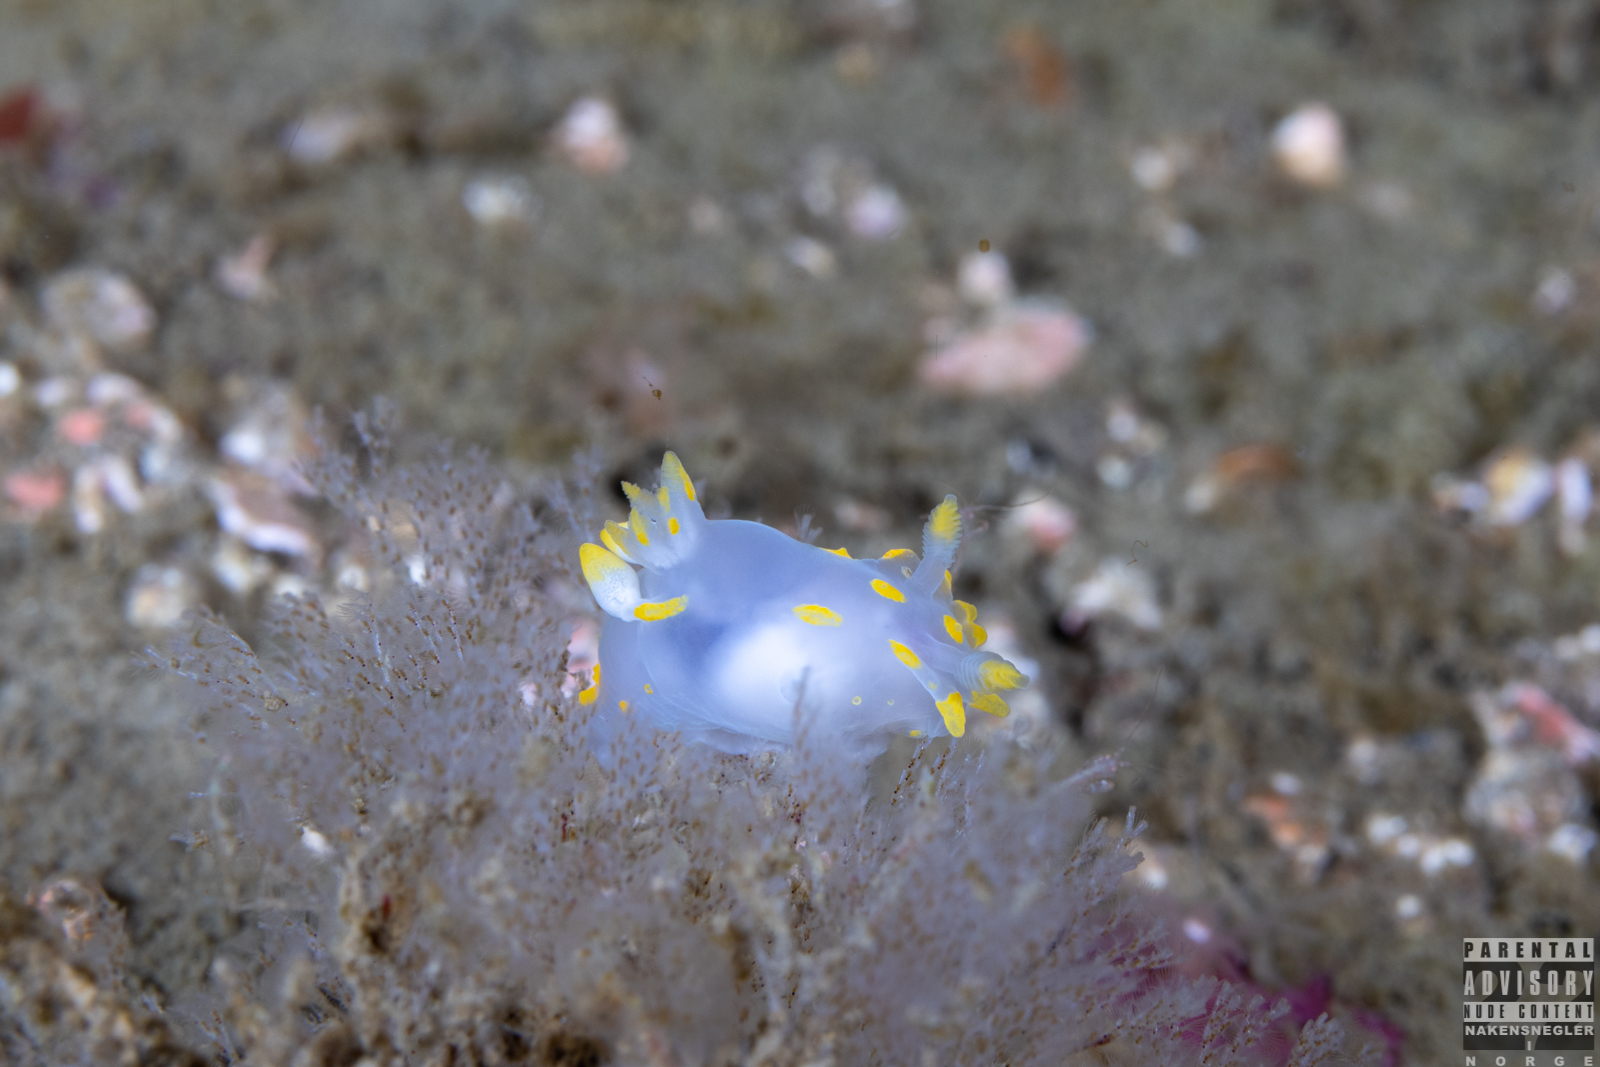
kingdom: Animalia
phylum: Mollusca
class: Gastropoda
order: Nudibranchia
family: Polyceridae
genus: Polycera
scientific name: Polycera quadrilineata
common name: Four-striped polycera
